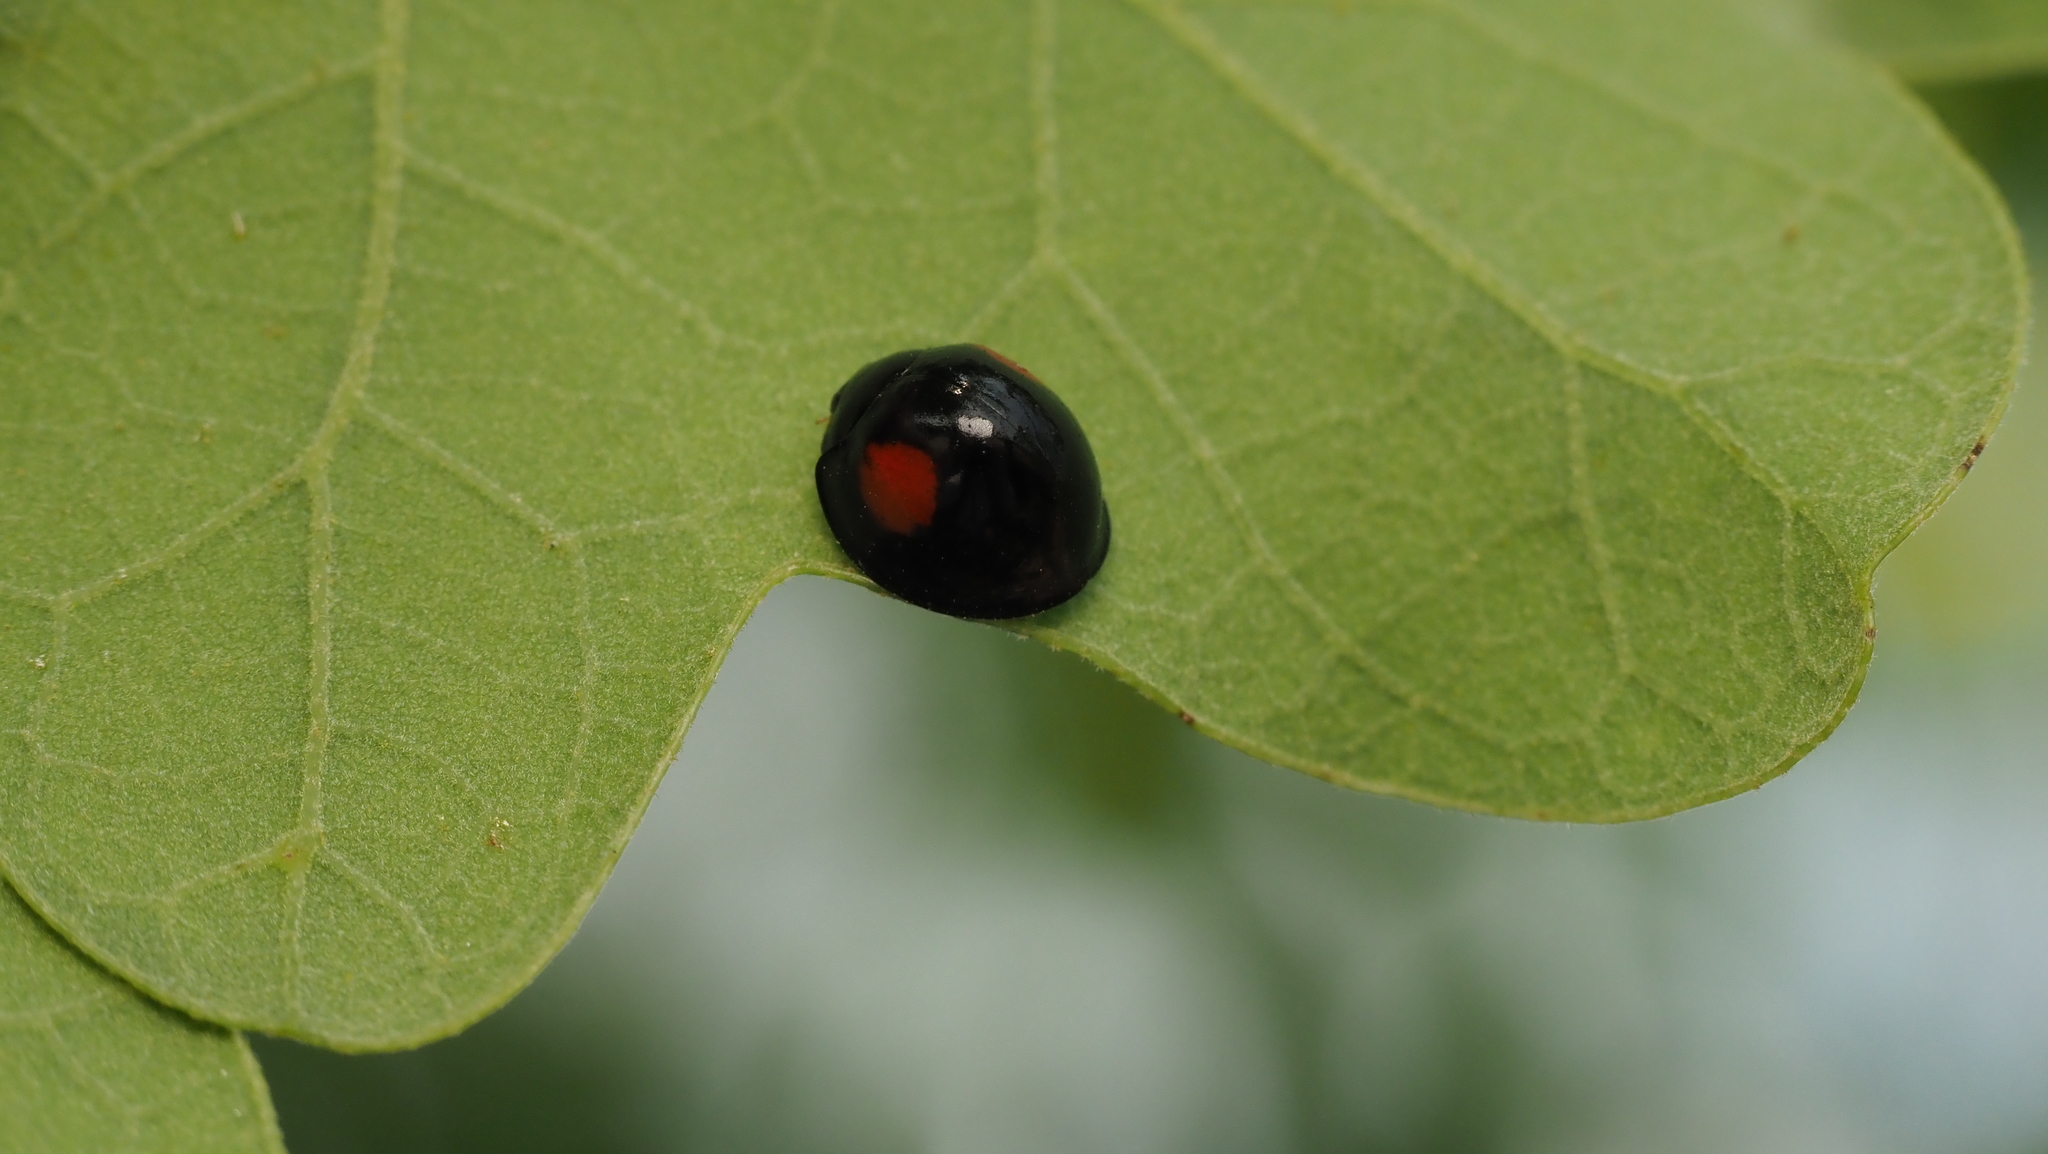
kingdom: Animalia
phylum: Arthropoda
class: Insecta
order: Coleoptera
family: Coccinellidae
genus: Chilocorus
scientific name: Chilocorus stigma
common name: Twicestabbed lady beetle
